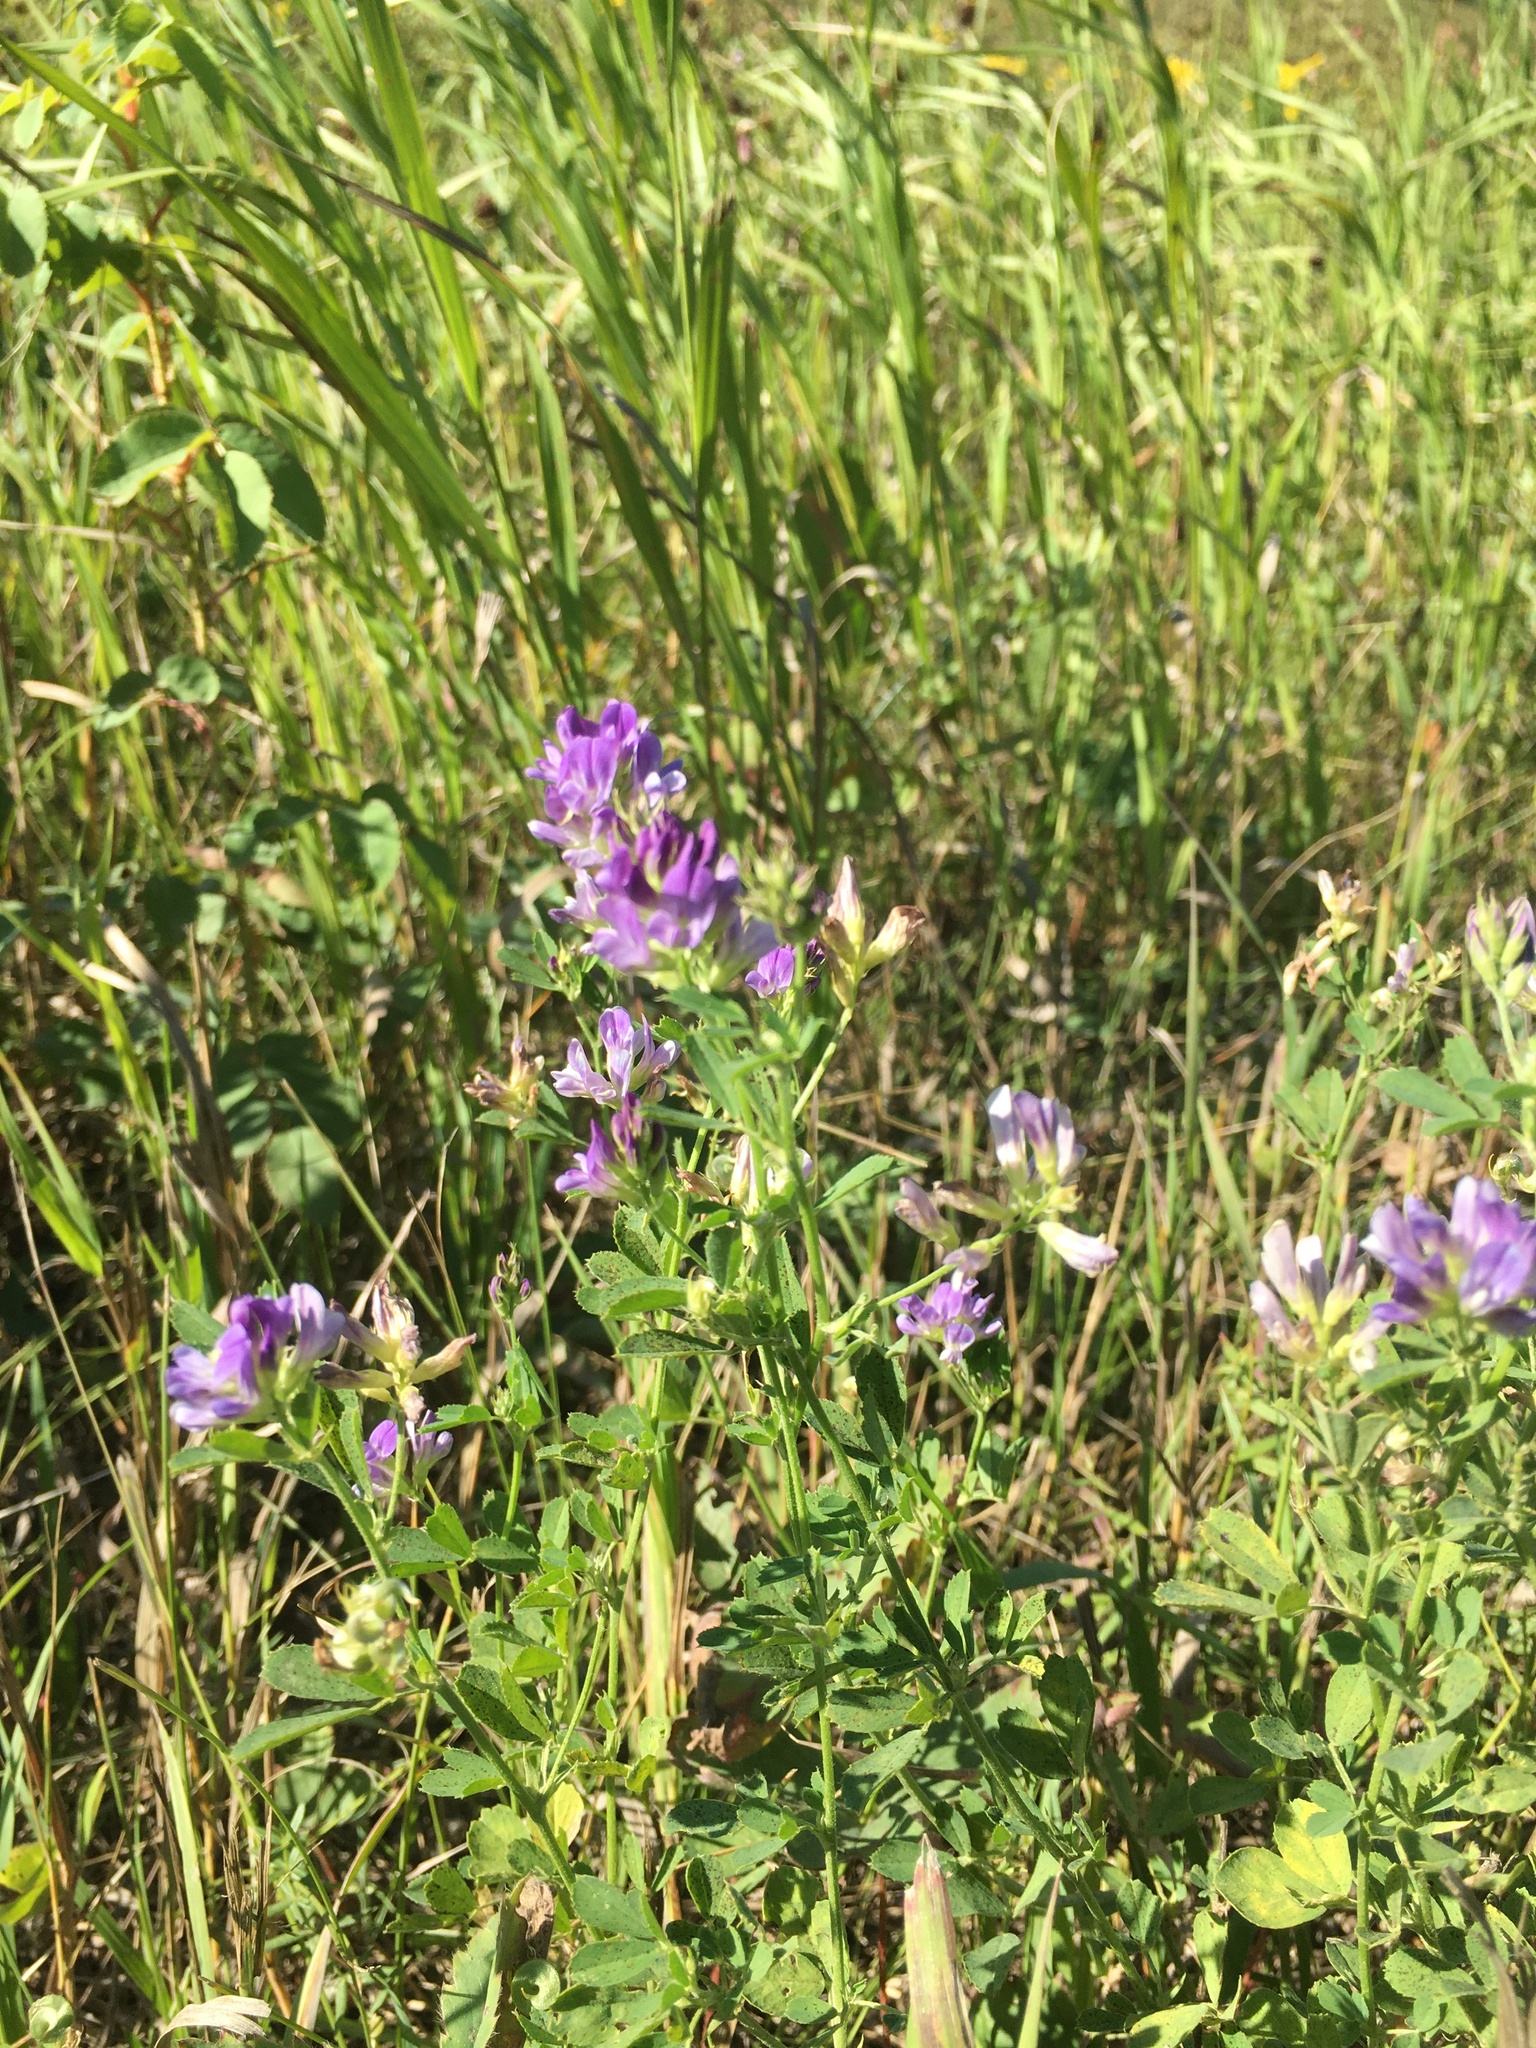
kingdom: Plantae
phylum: Tracheophyta
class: Magnoliopsida
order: Fabales
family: Fabaceae
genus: Medicago
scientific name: Medicago sativa
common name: Alfalfa
